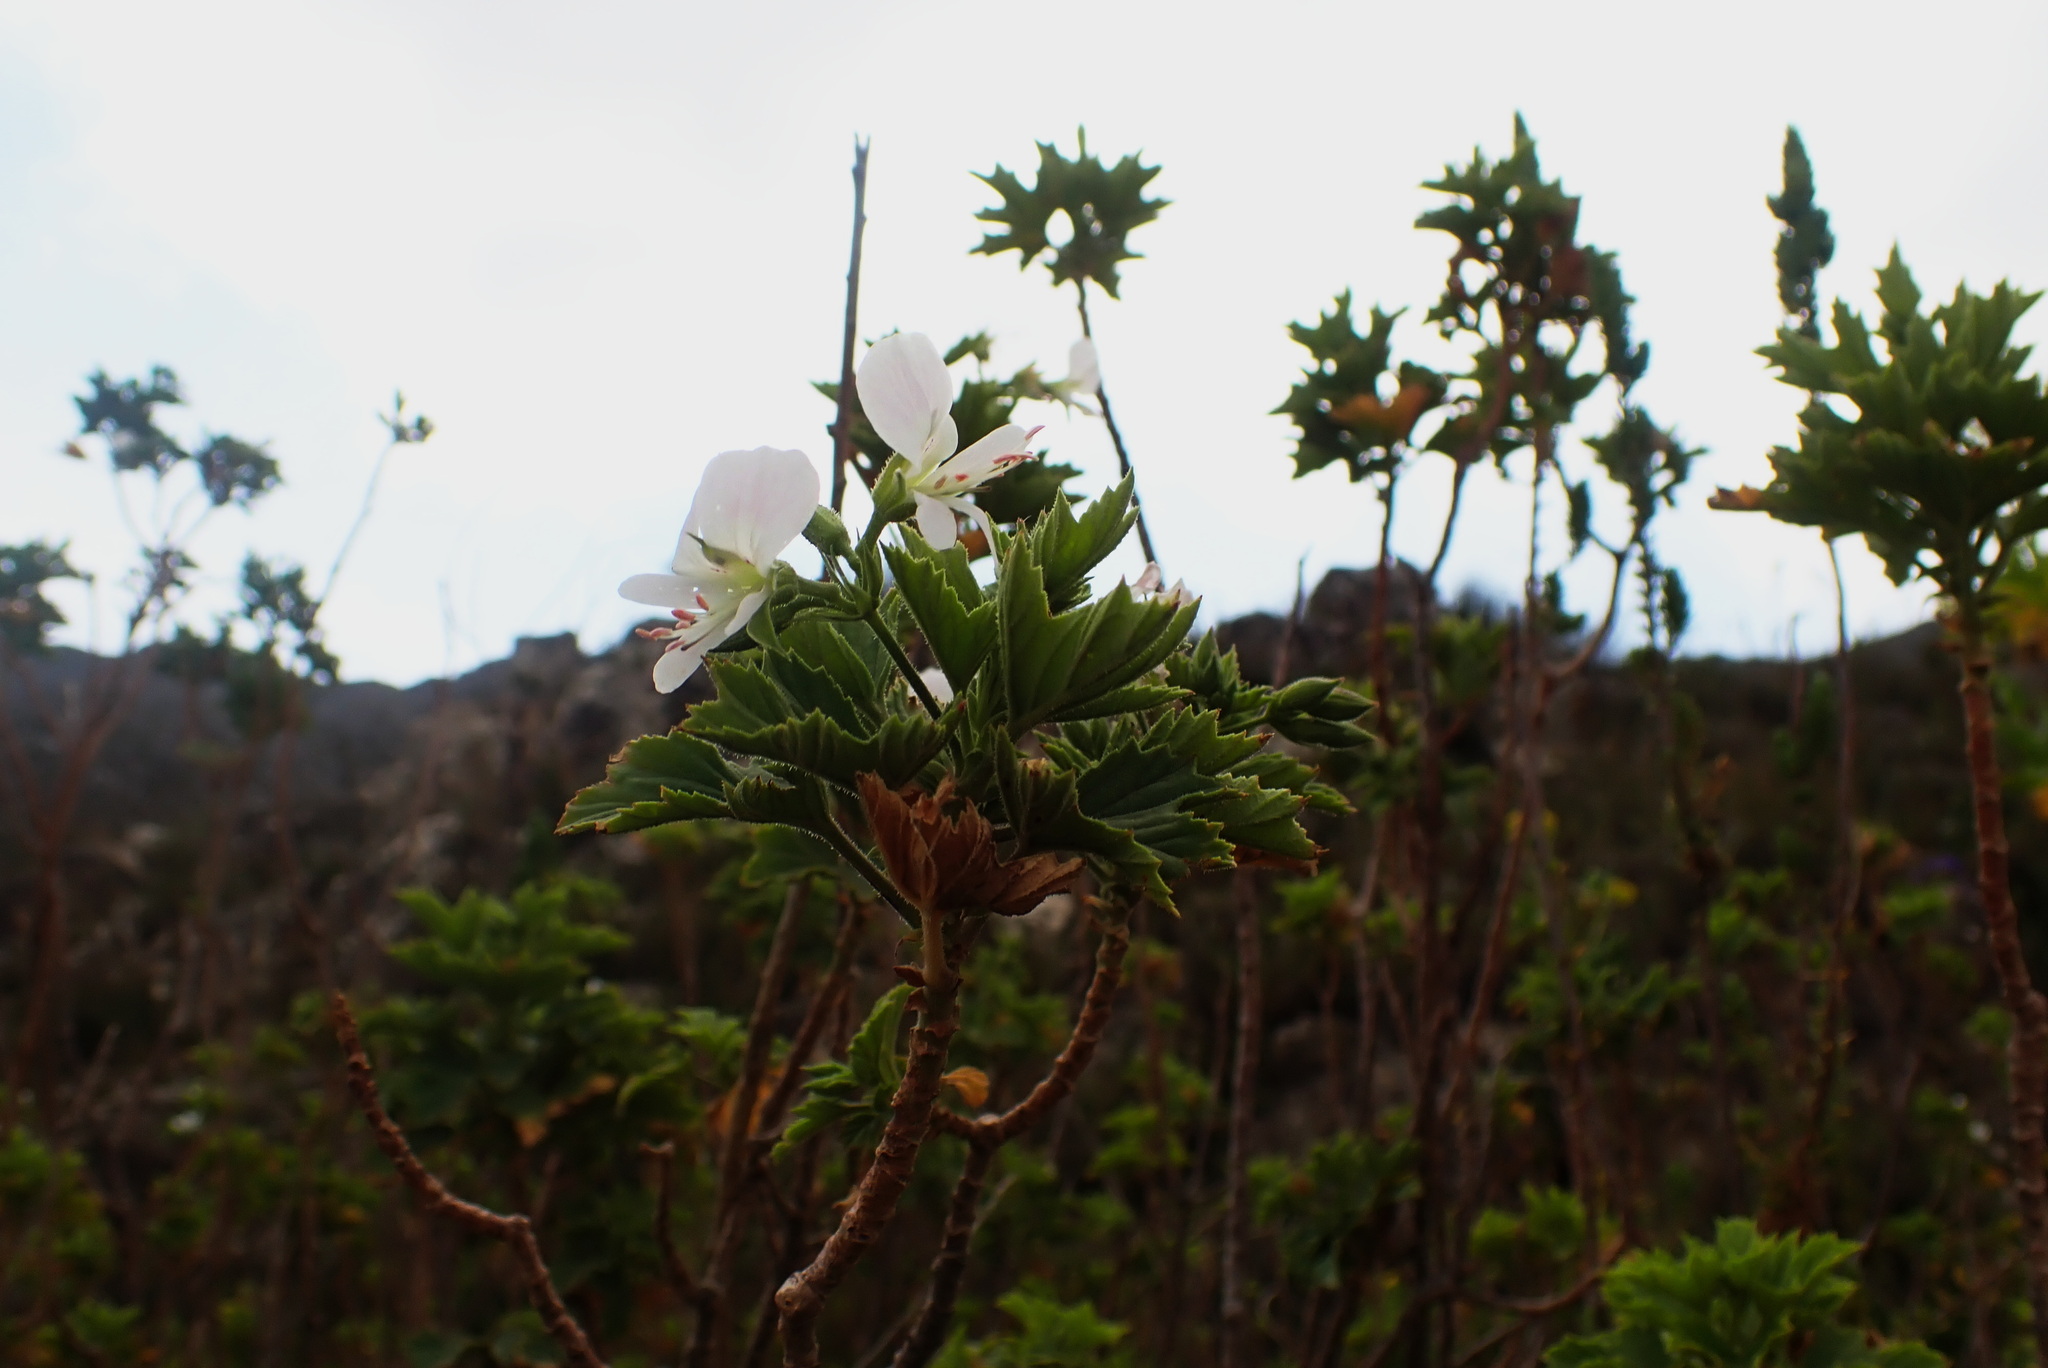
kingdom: Plantae
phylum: Tracheophyta
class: Magnoliopsida
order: Geraniales
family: Geraniaceae
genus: Pelargonium
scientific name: Pelargonium scabrum
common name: Apricot geranium
